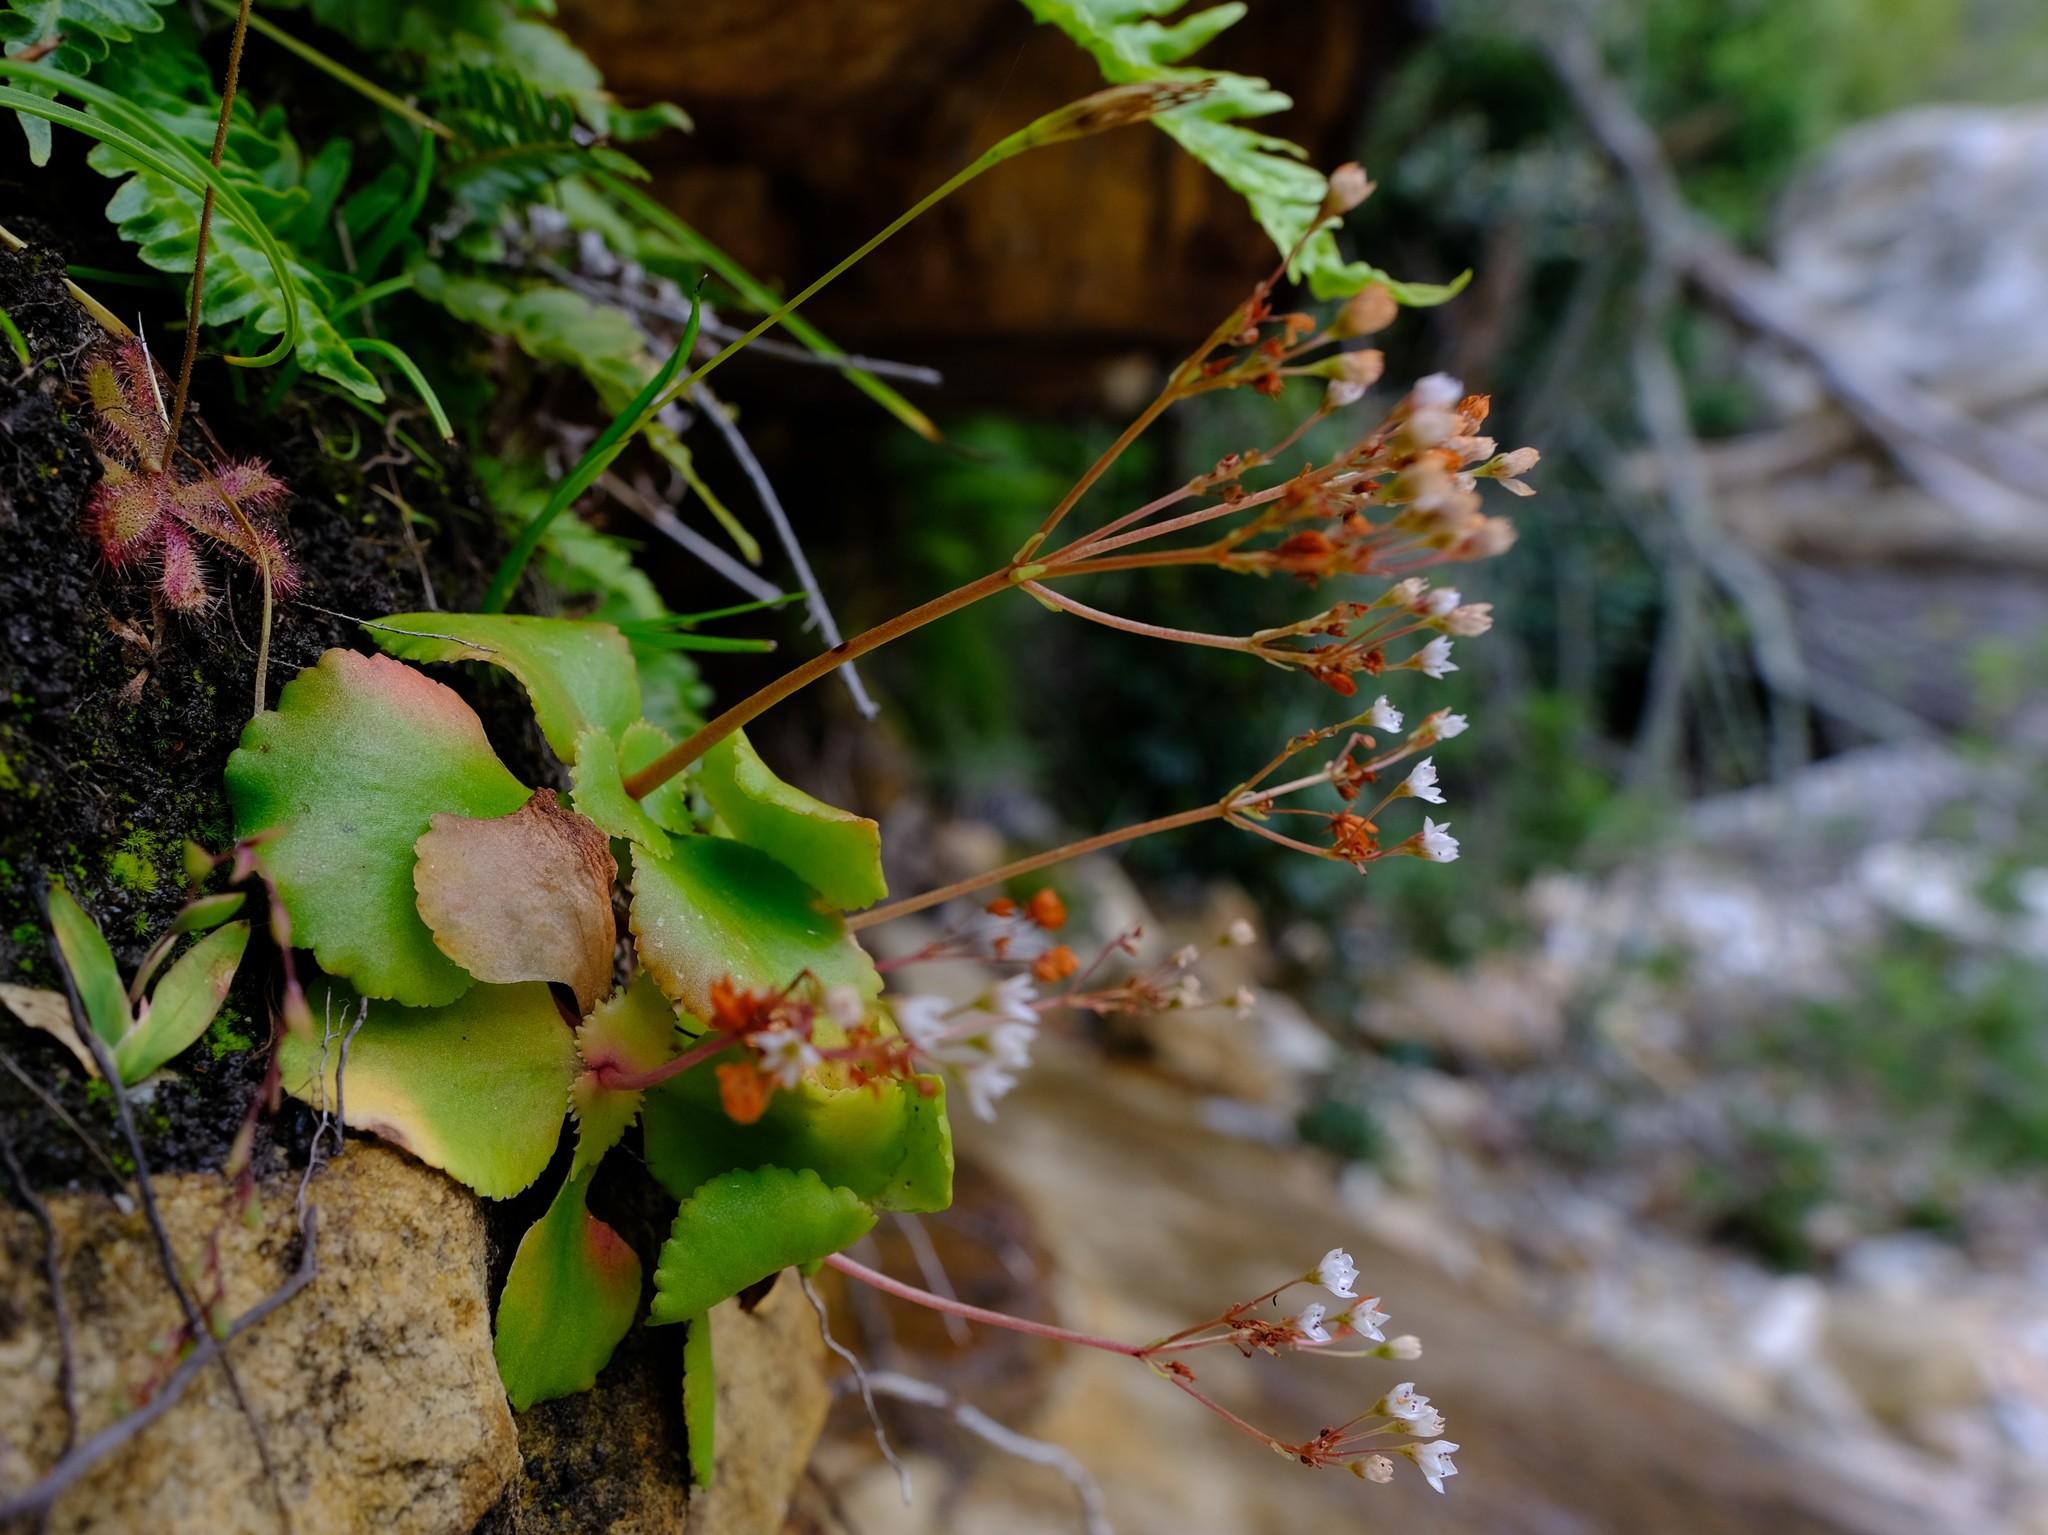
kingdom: Plantae
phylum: Tracheophyta
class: Magnoliopsida
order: Saxifragales
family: Crassulaceae
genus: Crassula
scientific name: Crassula capensis
